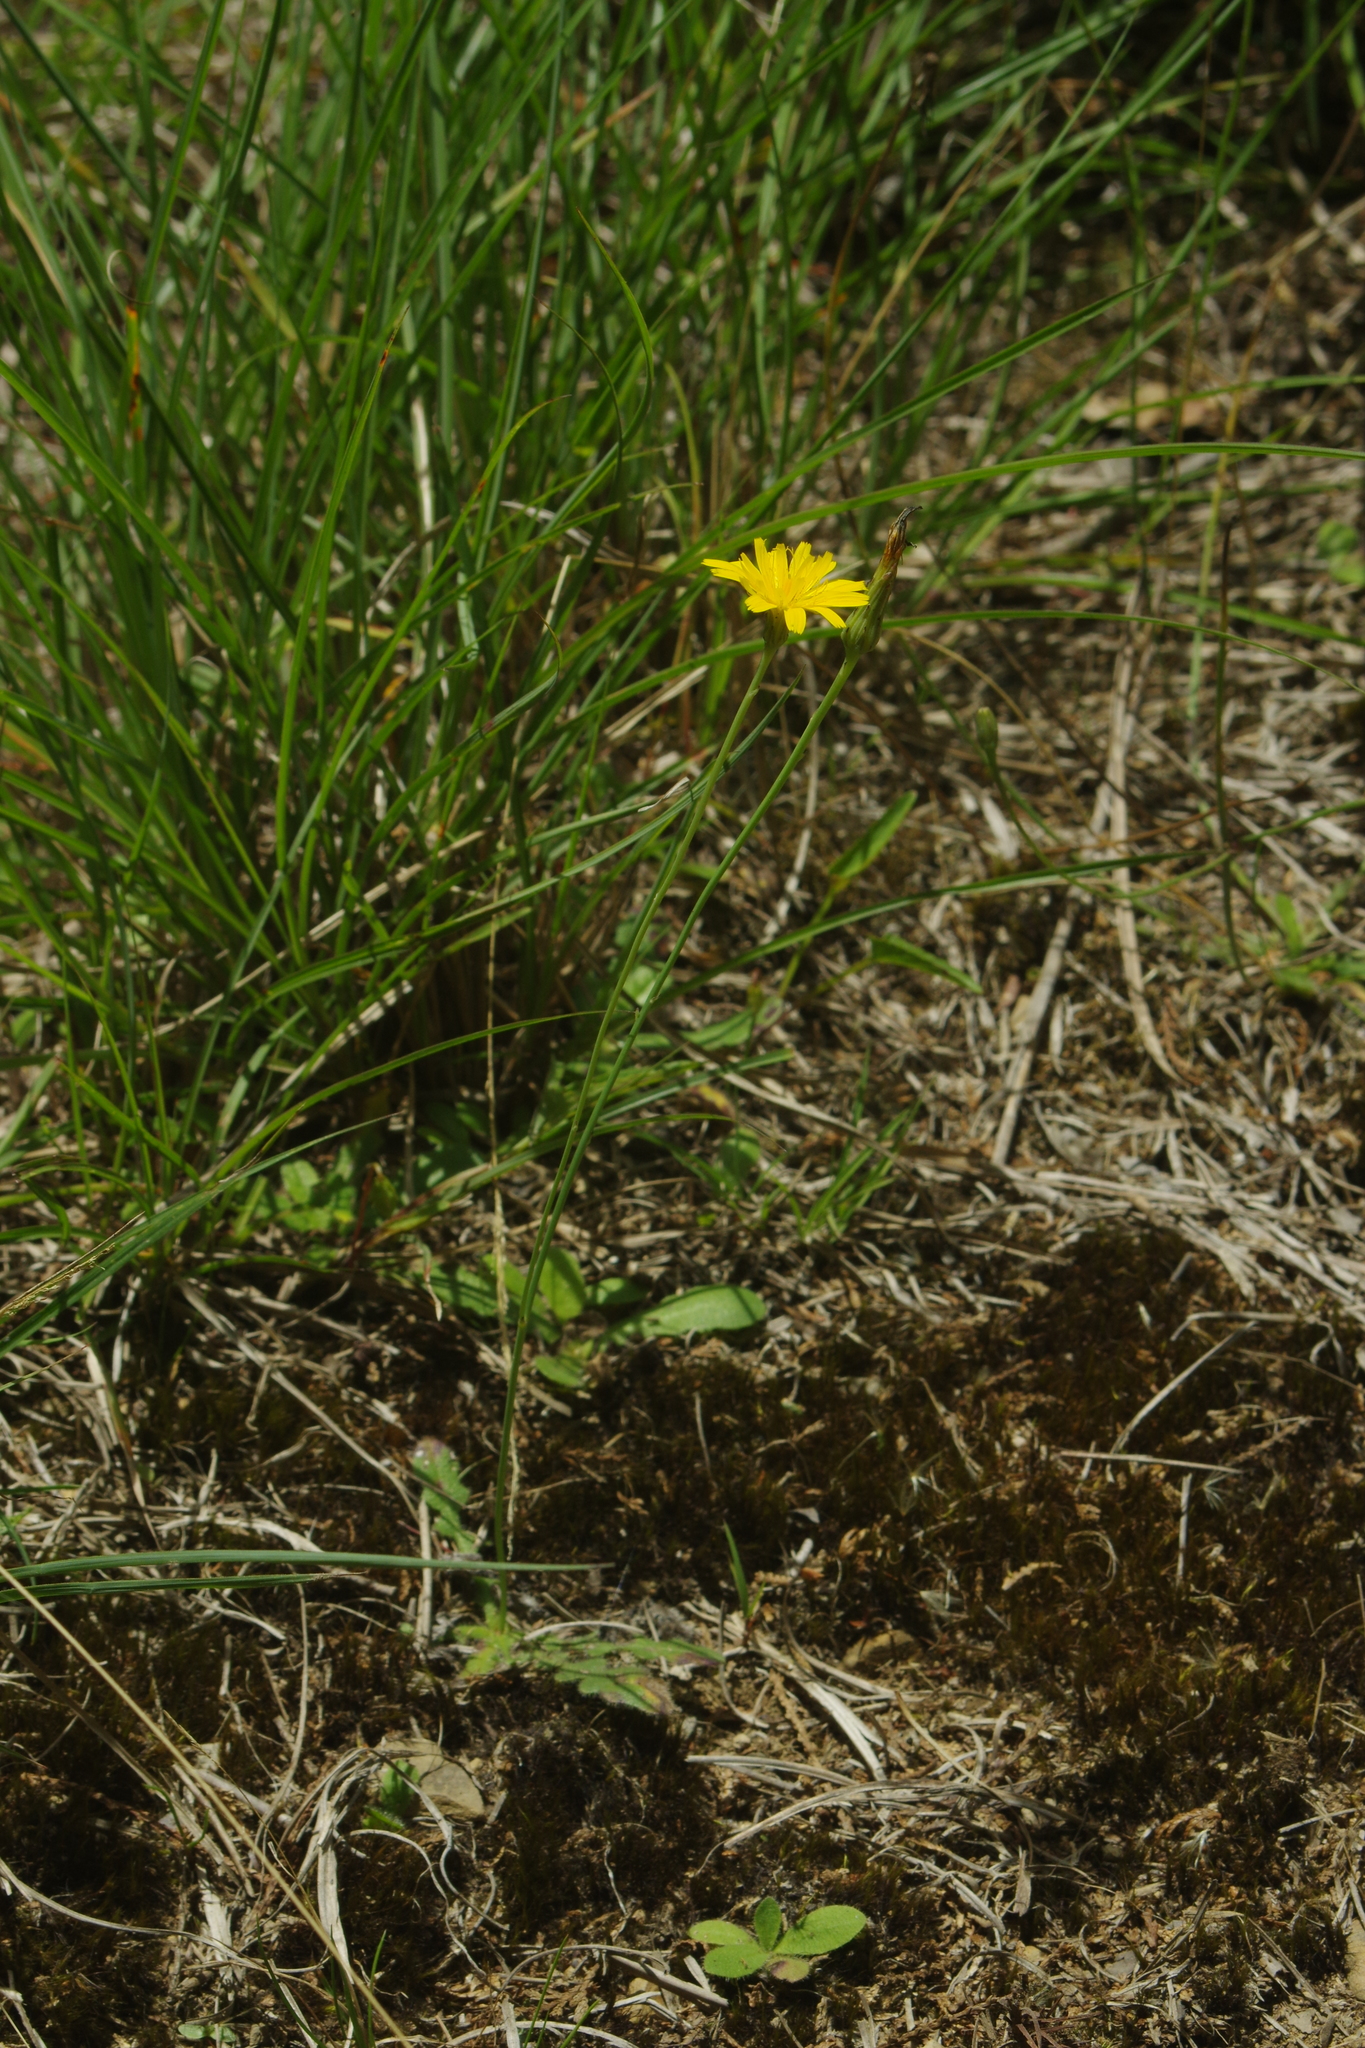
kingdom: Plantae
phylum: Tracheophyta
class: Magnoliopsida
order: Asterales
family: Asteraceae
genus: Hypochaeris
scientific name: Hypochaeris radicata
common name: Flatweed
